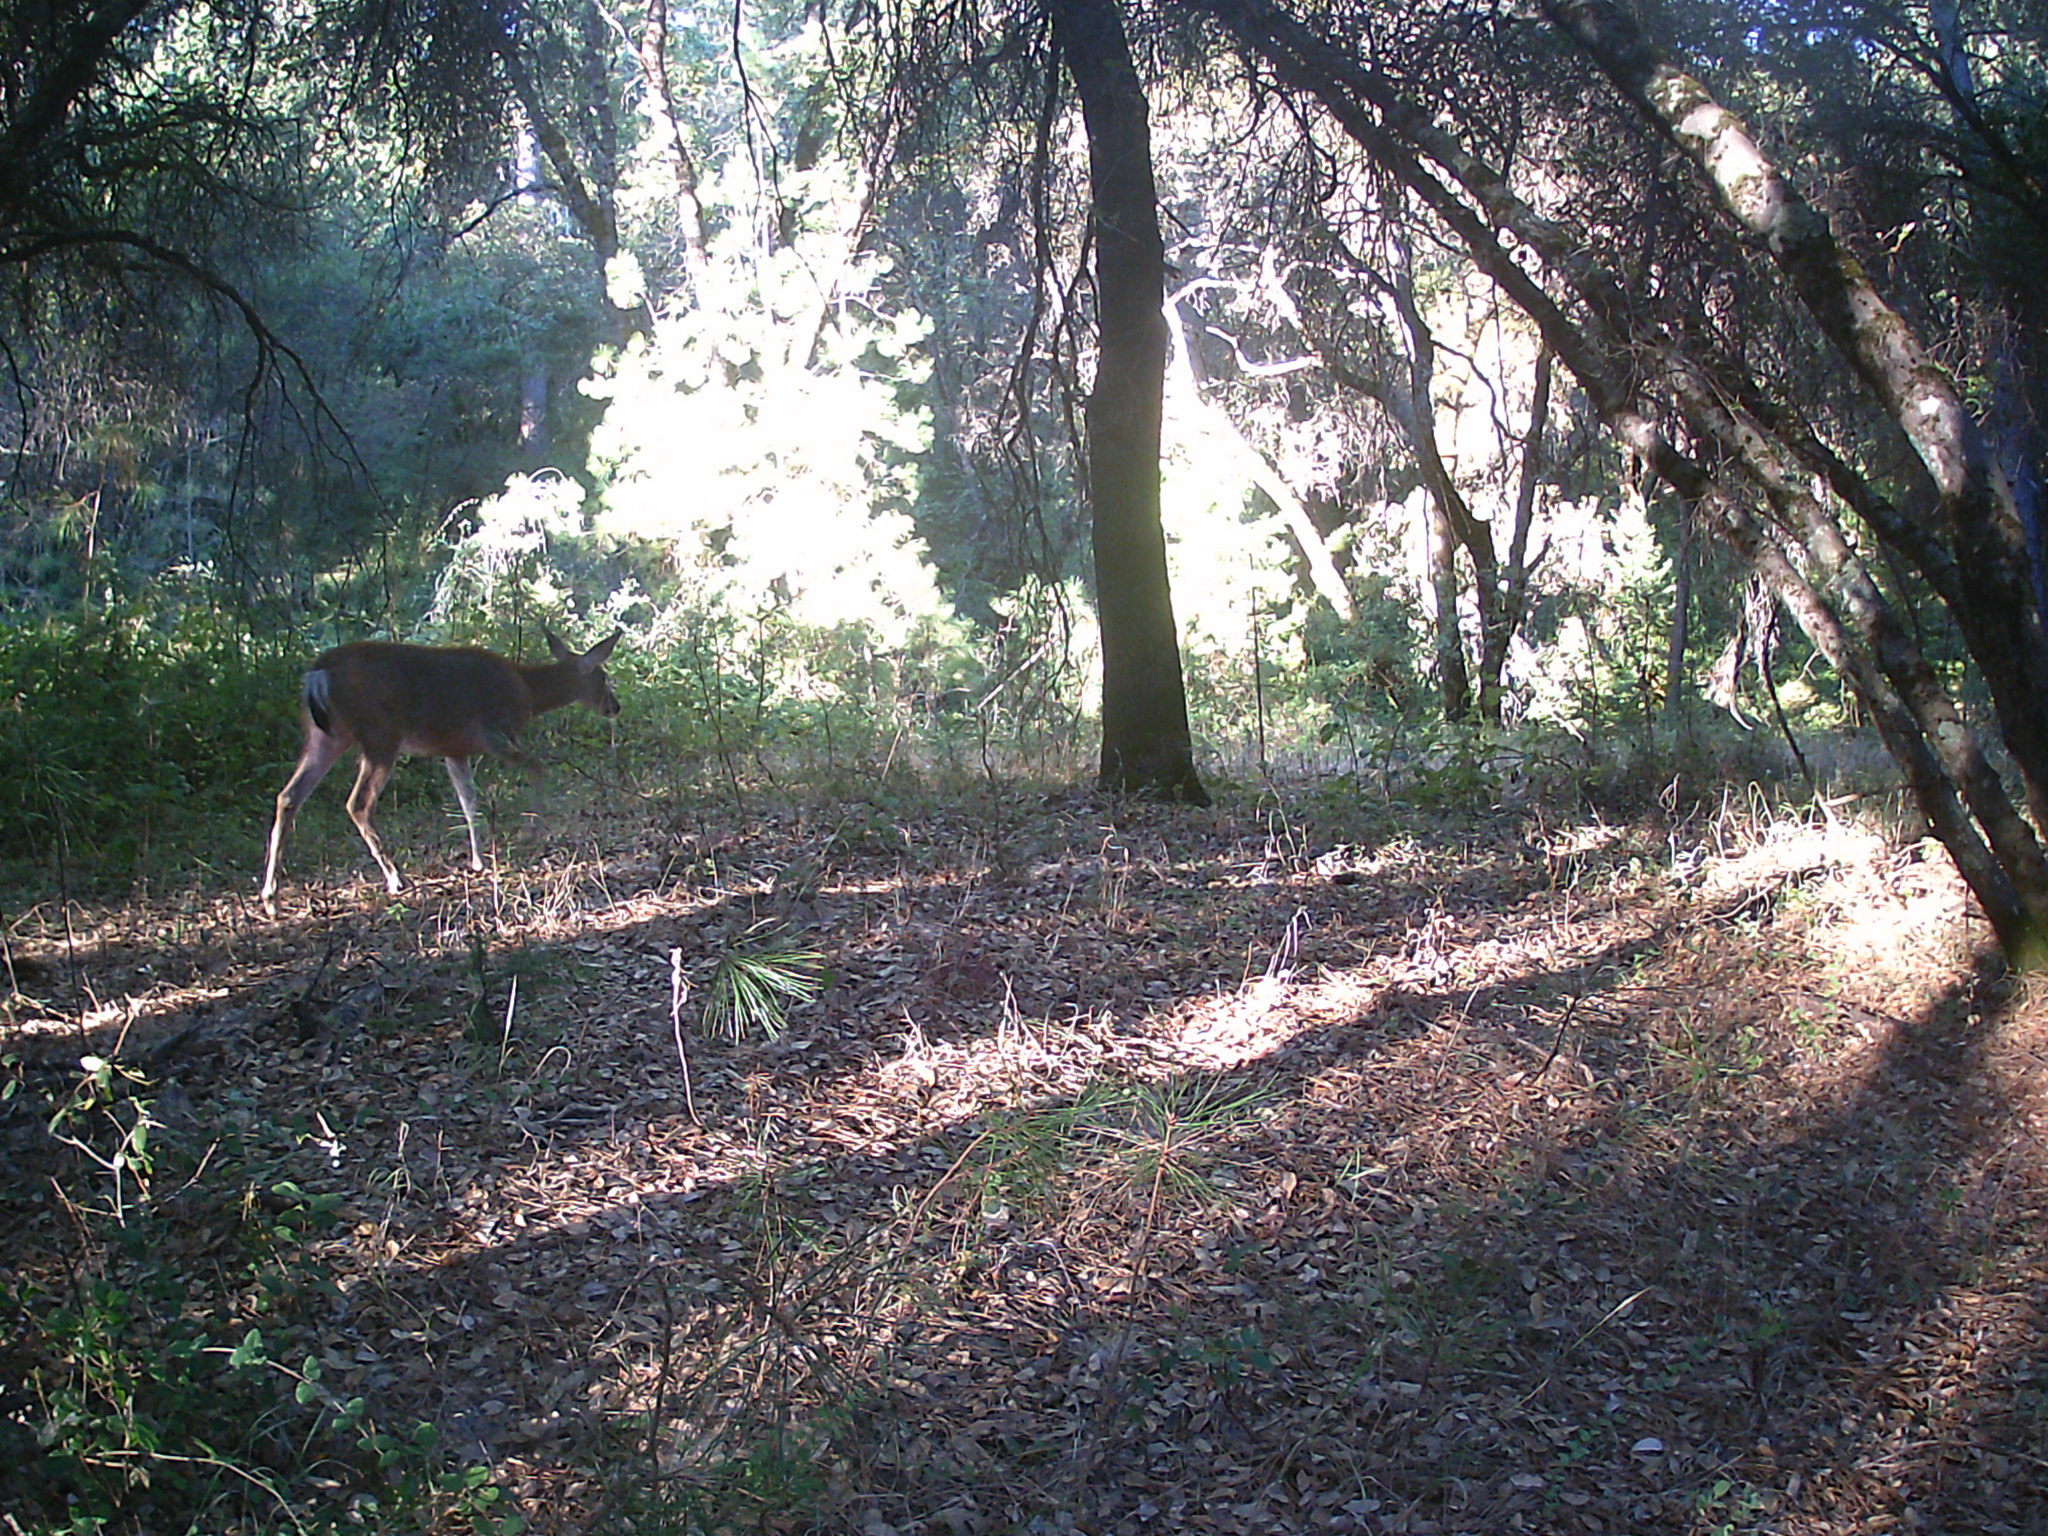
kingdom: Animalia
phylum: Chordata
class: Mammalia
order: Artiodactyla
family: Cervidae
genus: Odocoileus
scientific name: Odocoileus hemionus
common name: Mule deer
